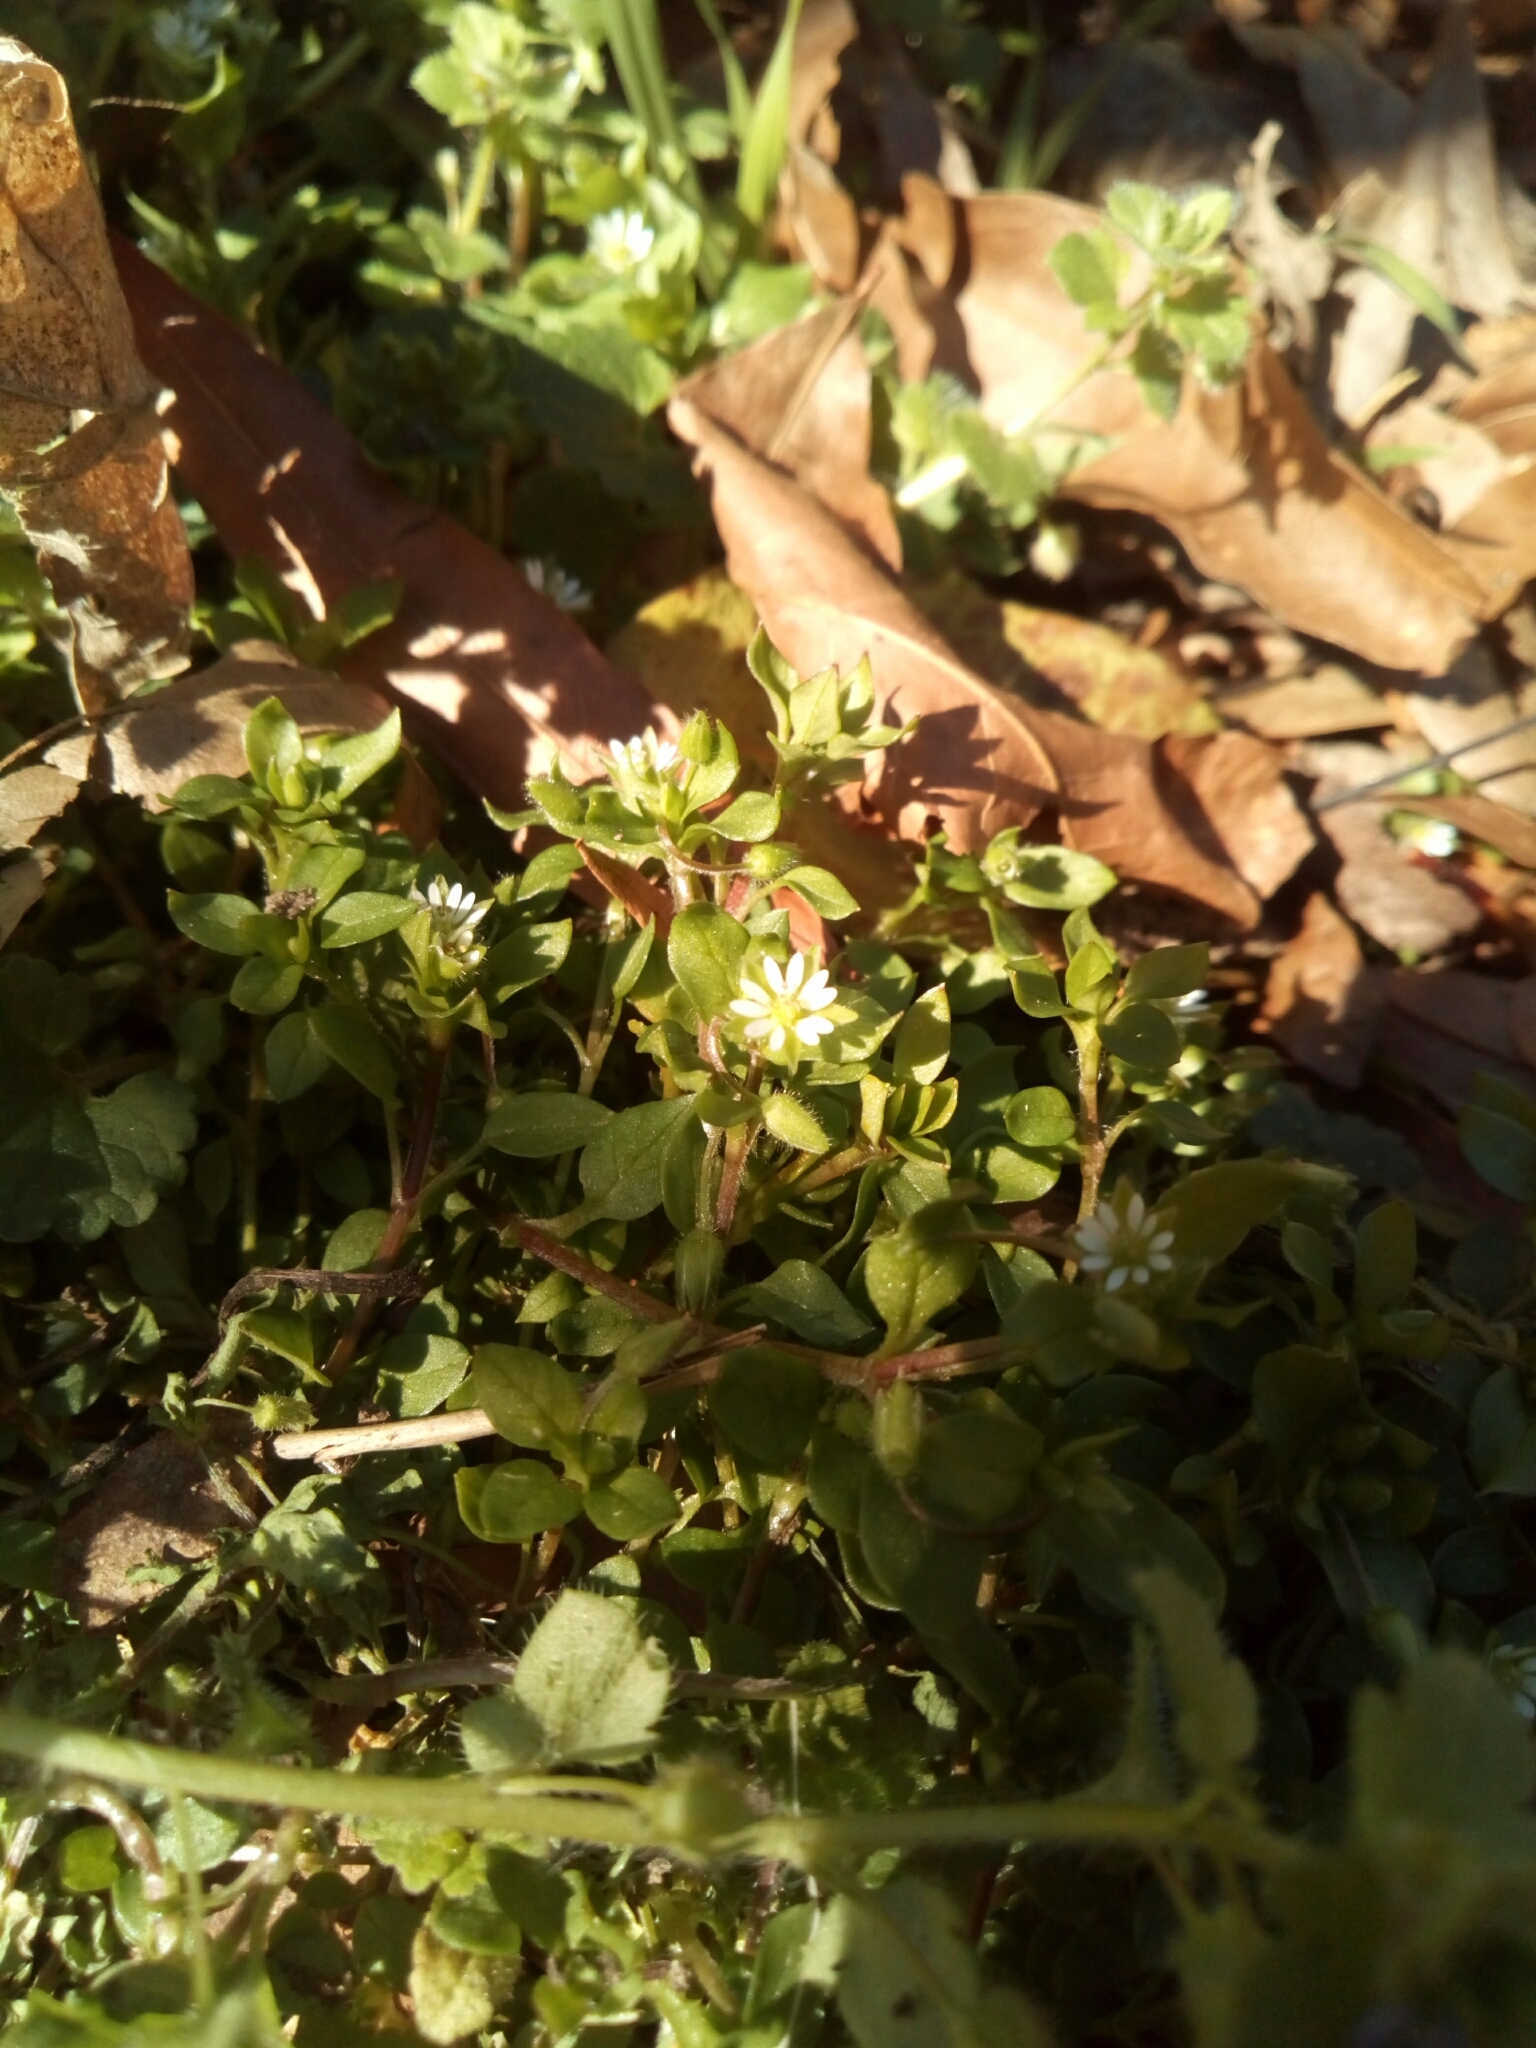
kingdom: Plantae
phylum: Tracheophyta
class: Magnoliopsida
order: Caryophyllales
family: Caryophyllaceae
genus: Stellaria
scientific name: Stellaria media
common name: Common chickweed
